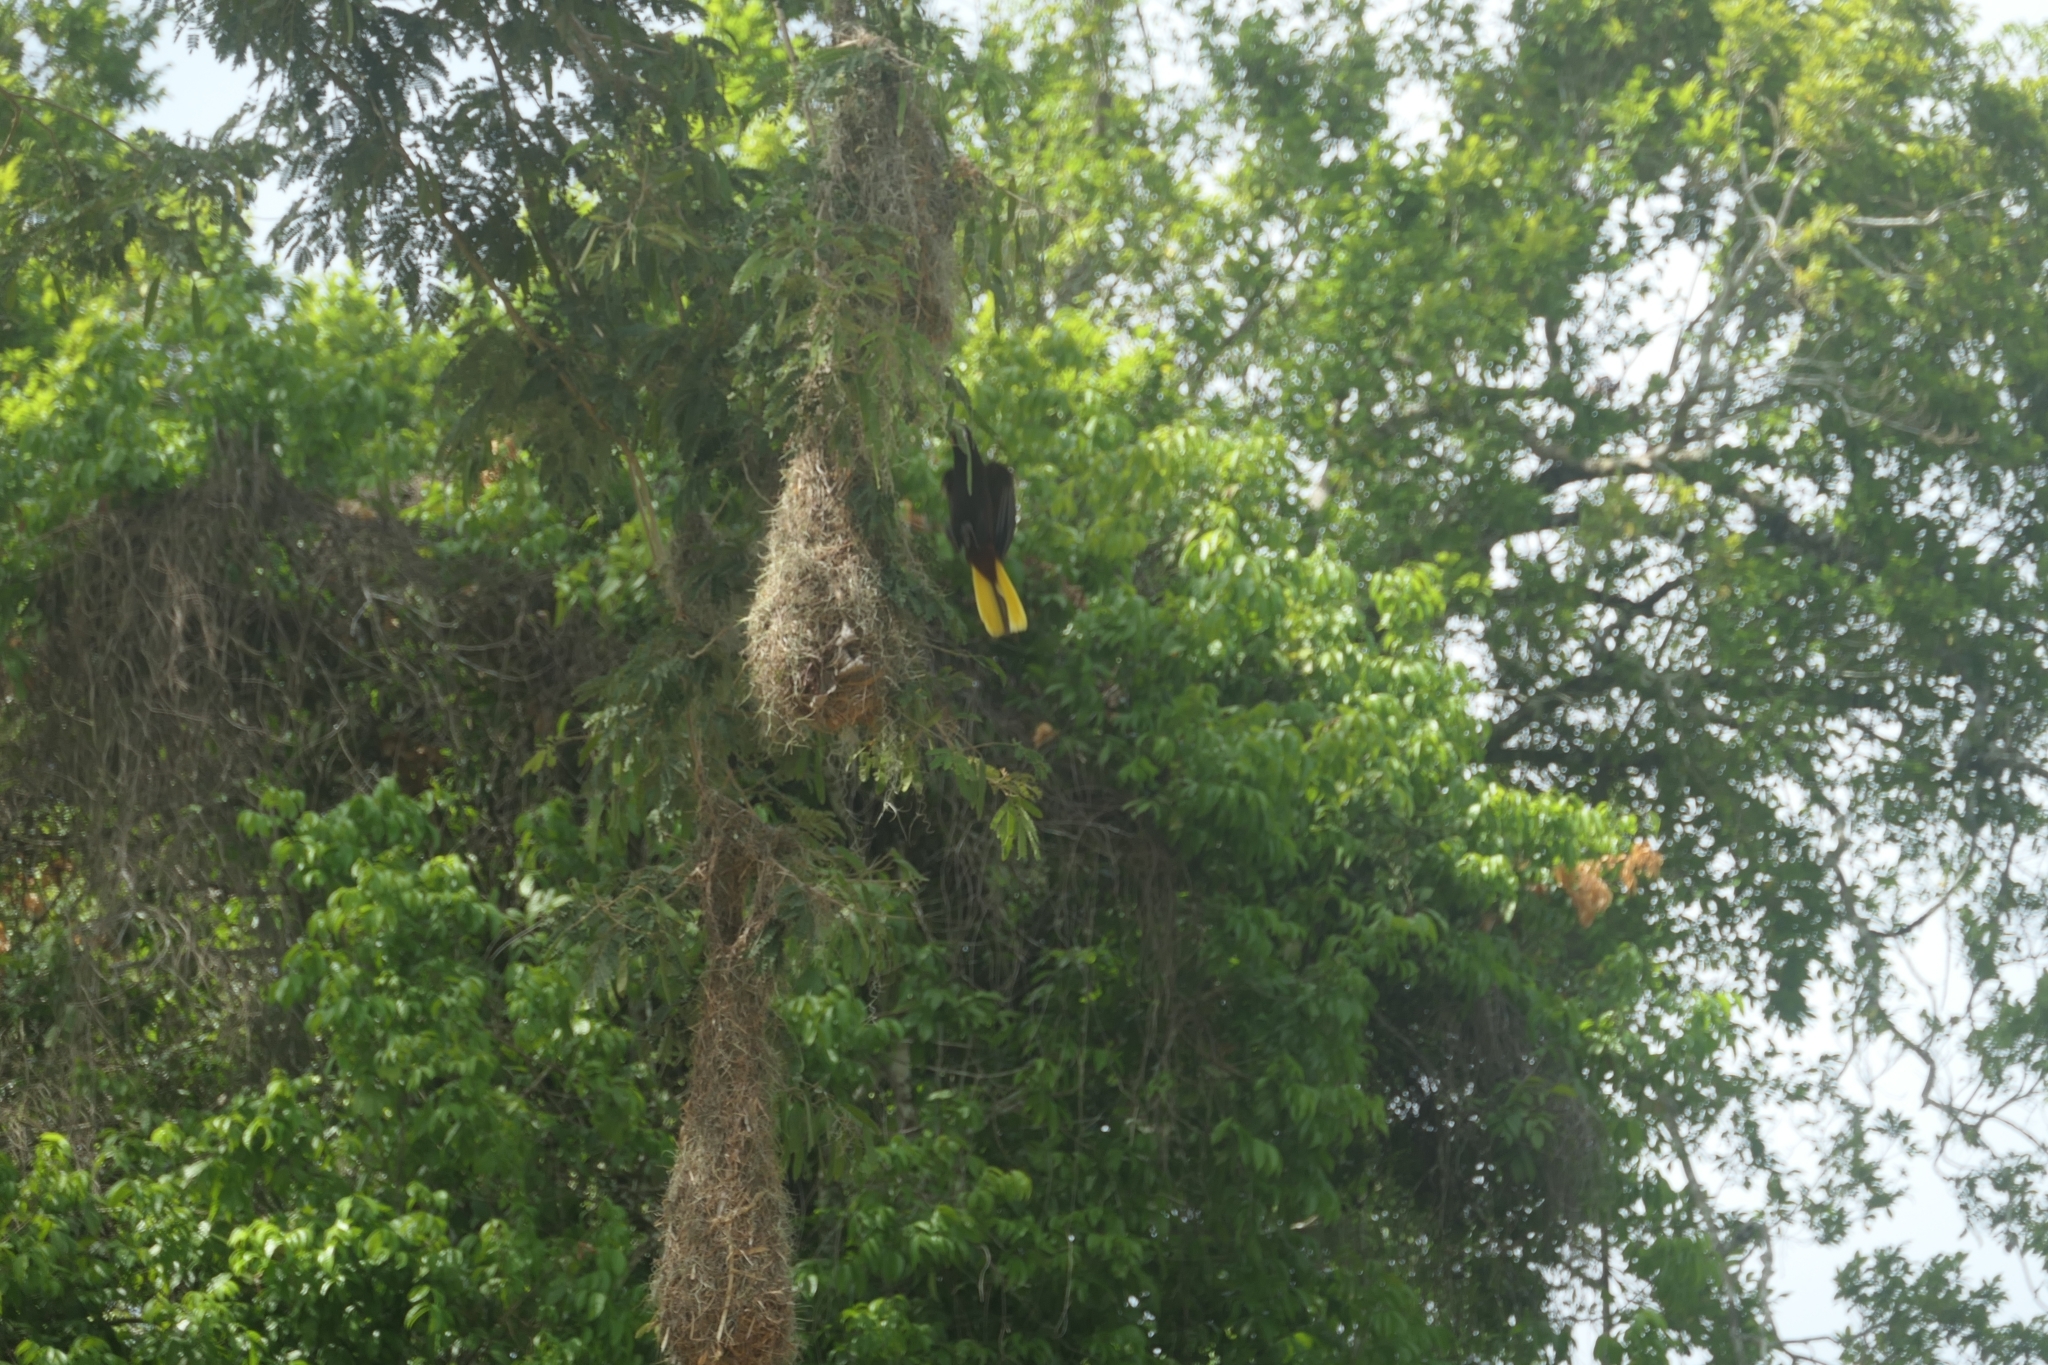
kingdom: Animalia
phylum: Chordata
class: Aves
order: Passeriformes
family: Icteridae
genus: Psarocolius
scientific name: Psarocolius montezuma
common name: Montezuma oropendola
